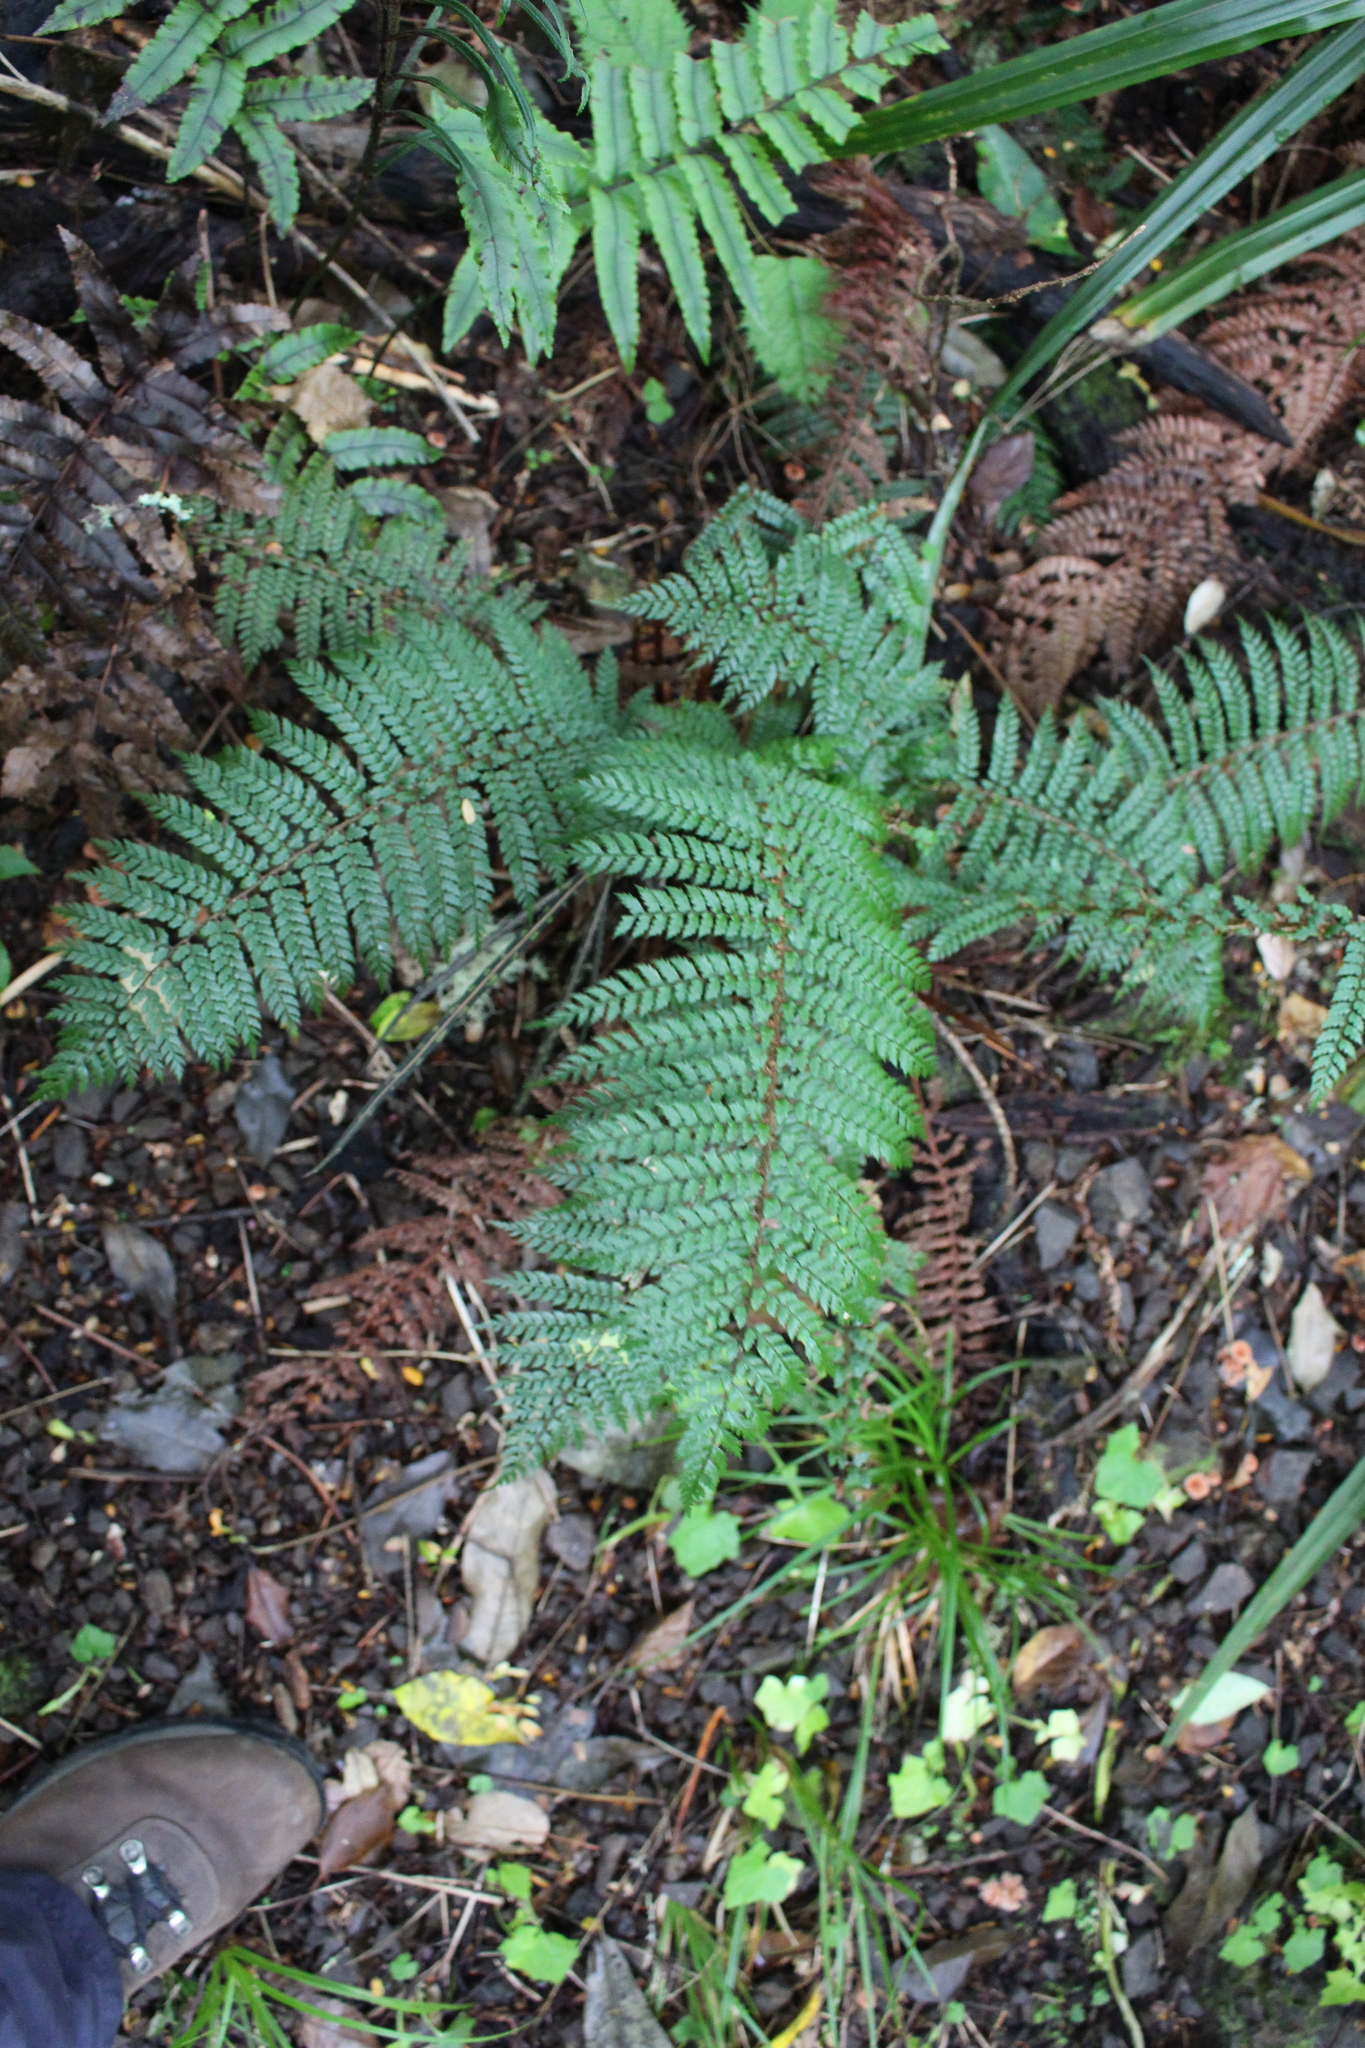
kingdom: Plantae
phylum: Tracheophyta
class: Polypodiopsida
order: Polypodiales
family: Dryopteridaceae
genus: Polystichum
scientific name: Polystichum vestitum
